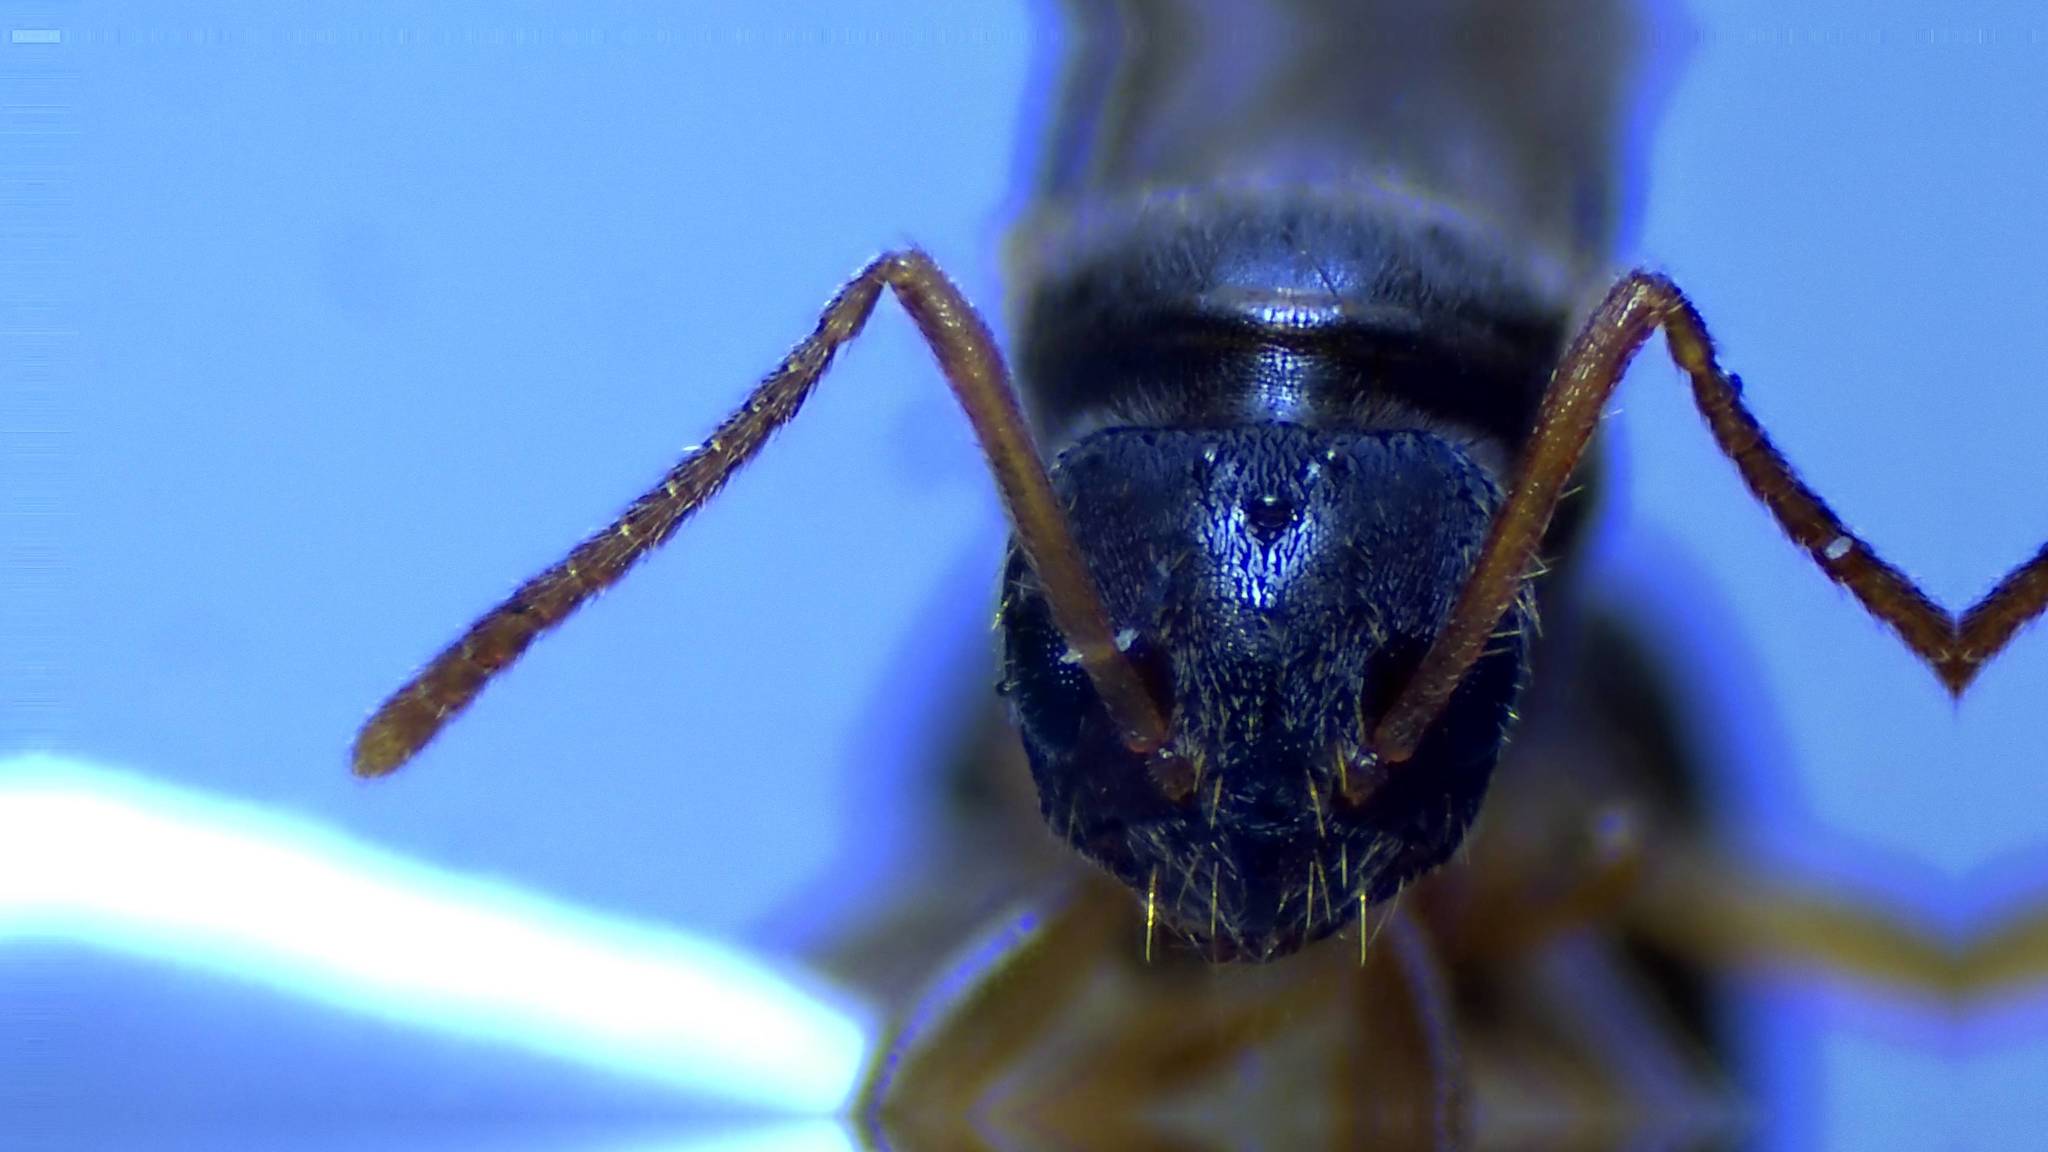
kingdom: Animalia
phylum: Arthropoda
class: Insecta
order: Hymenoptera
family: Formicidae
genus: Paratrechina
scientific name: Paratrechina flavipes
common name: Eastern asian formicine ant
